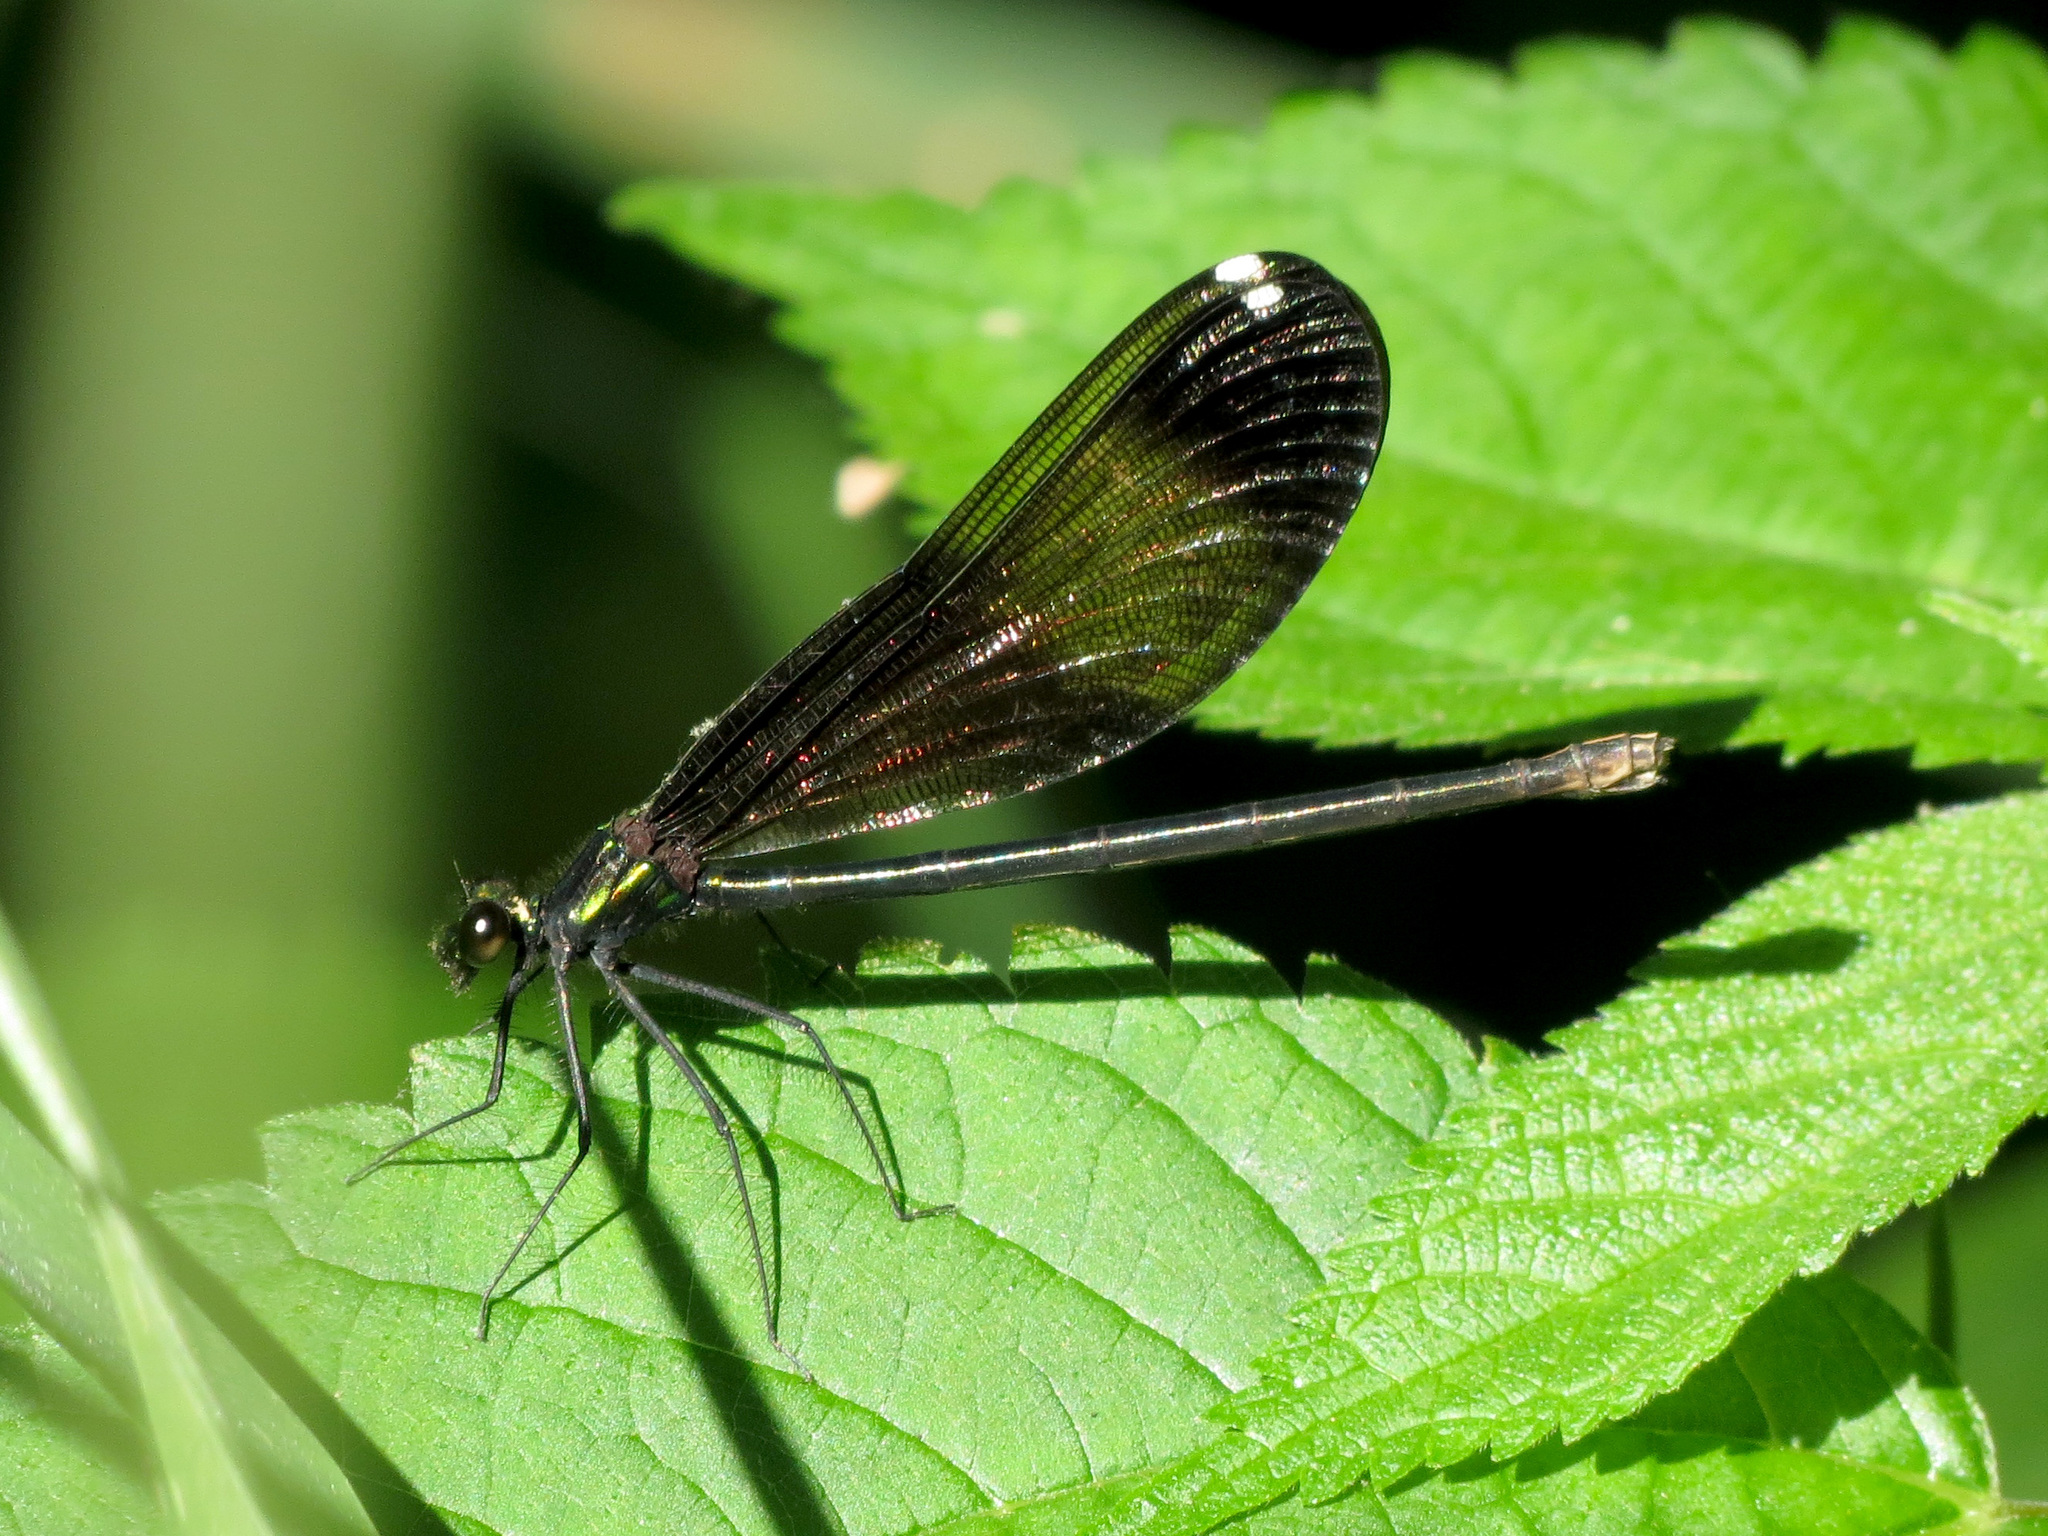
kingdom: Animalia
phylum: Arthropoda
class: Insecta
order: Odonata
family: Calopterygidae
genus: Calopteryx
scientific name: Calopteryx maculata
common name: Ebony jewelwing
